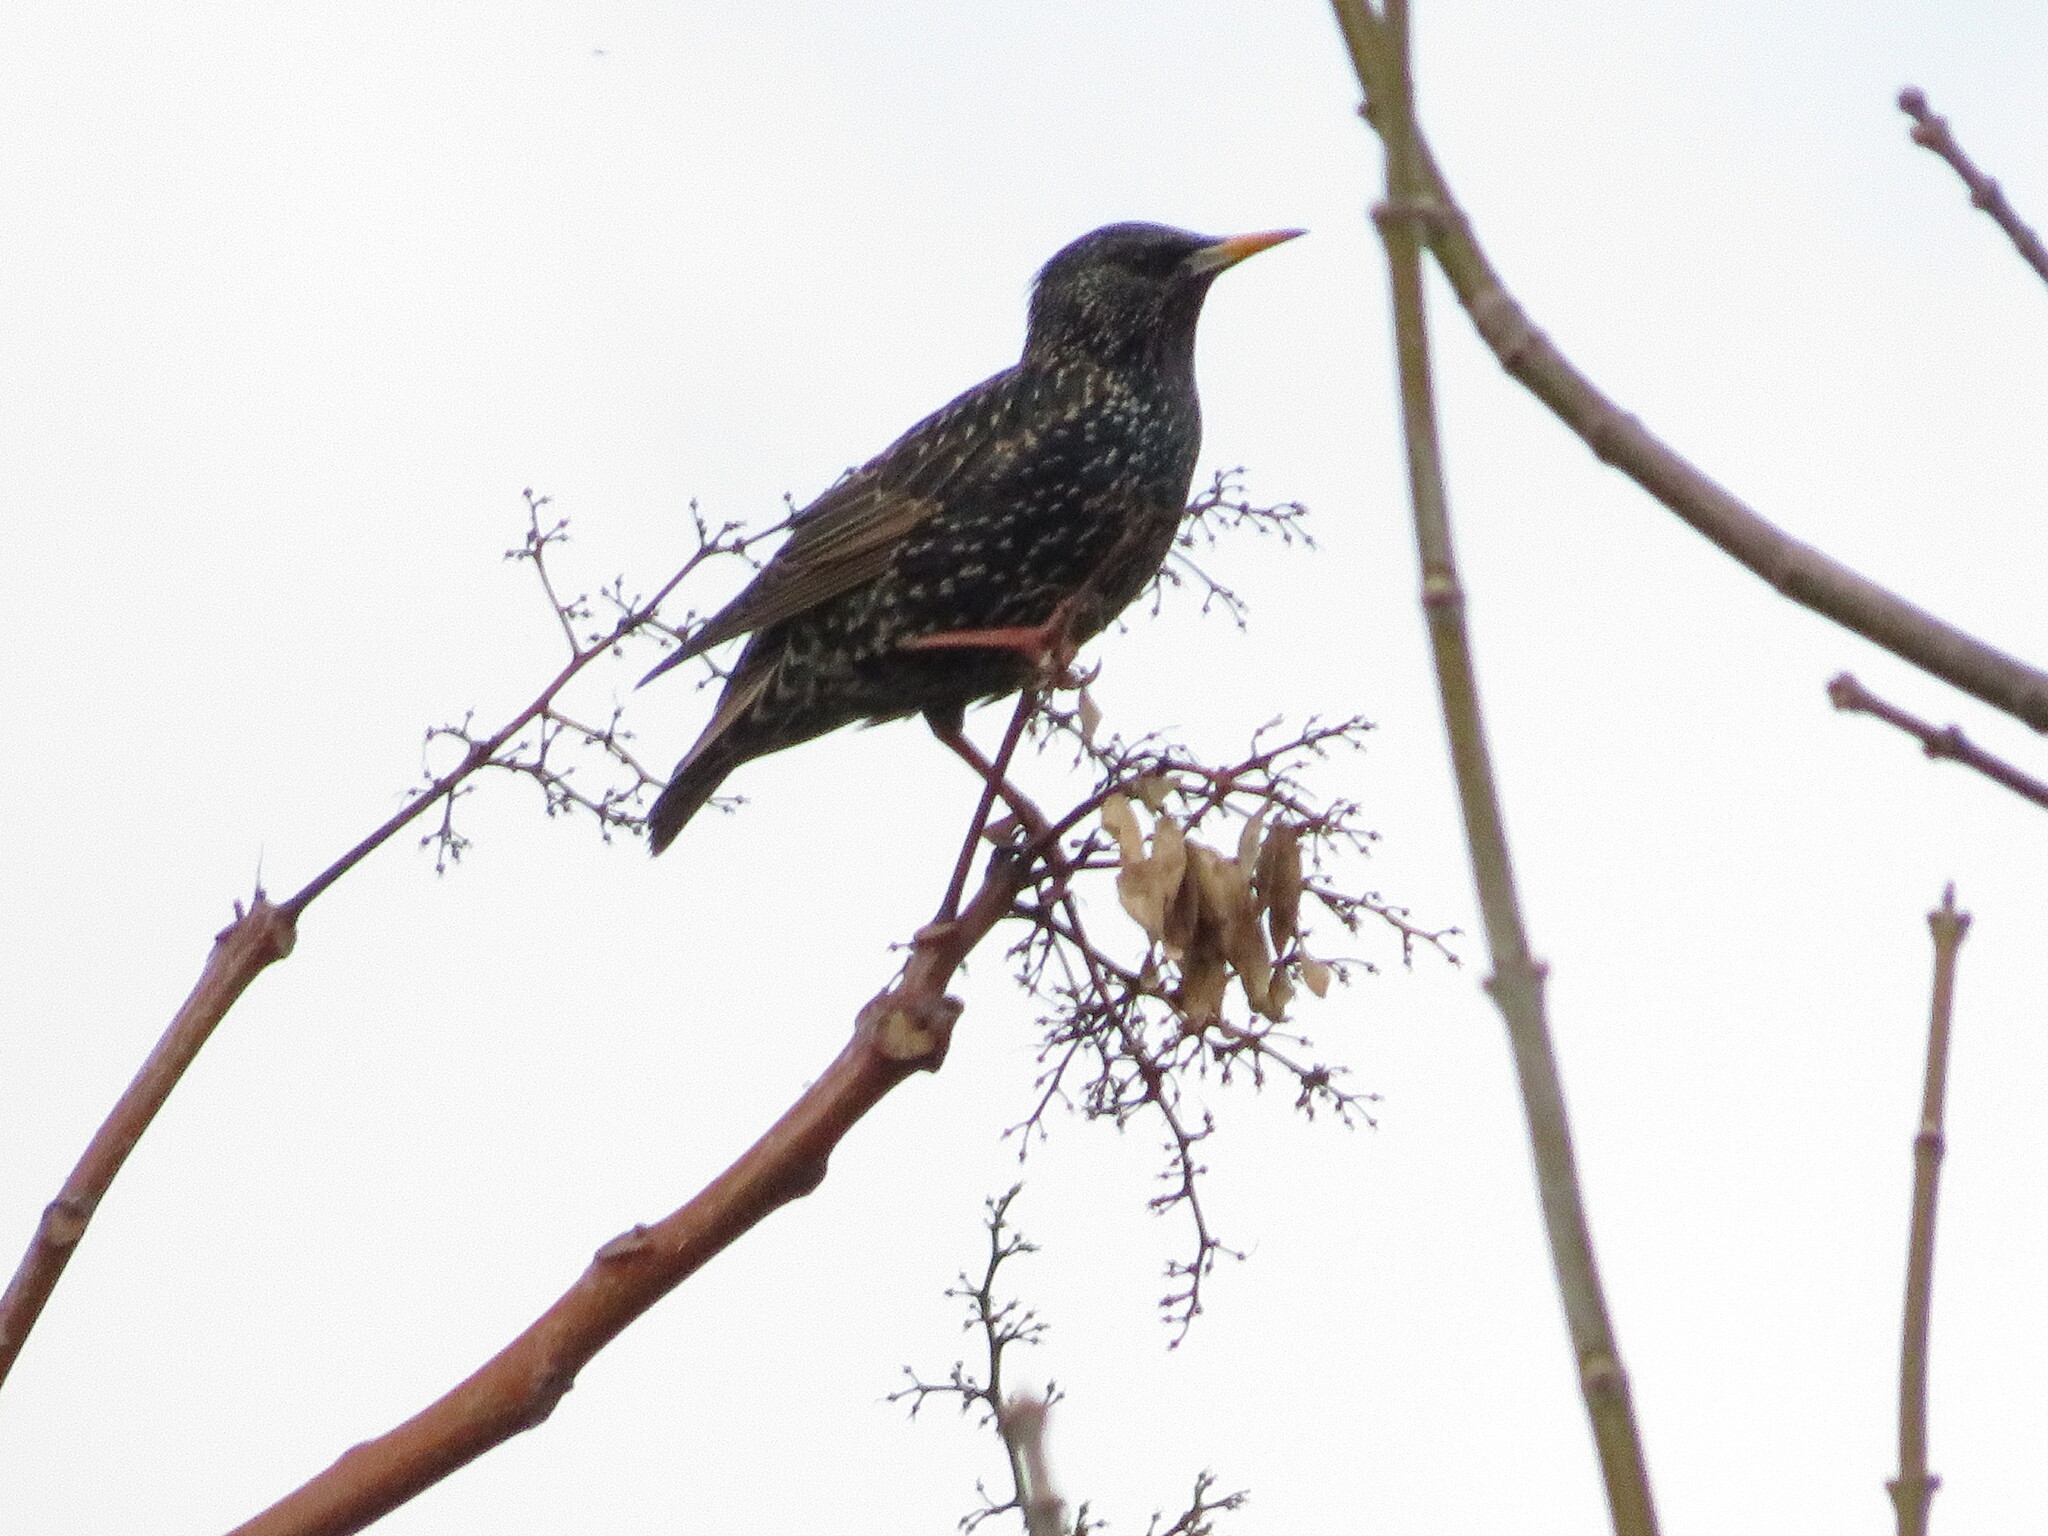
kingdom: Animalia
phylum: Chordata
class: Aves
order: Passeriformes
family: Sturnidae
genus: Sturnus
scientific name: Sturnus vulgaris
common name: Common starling
